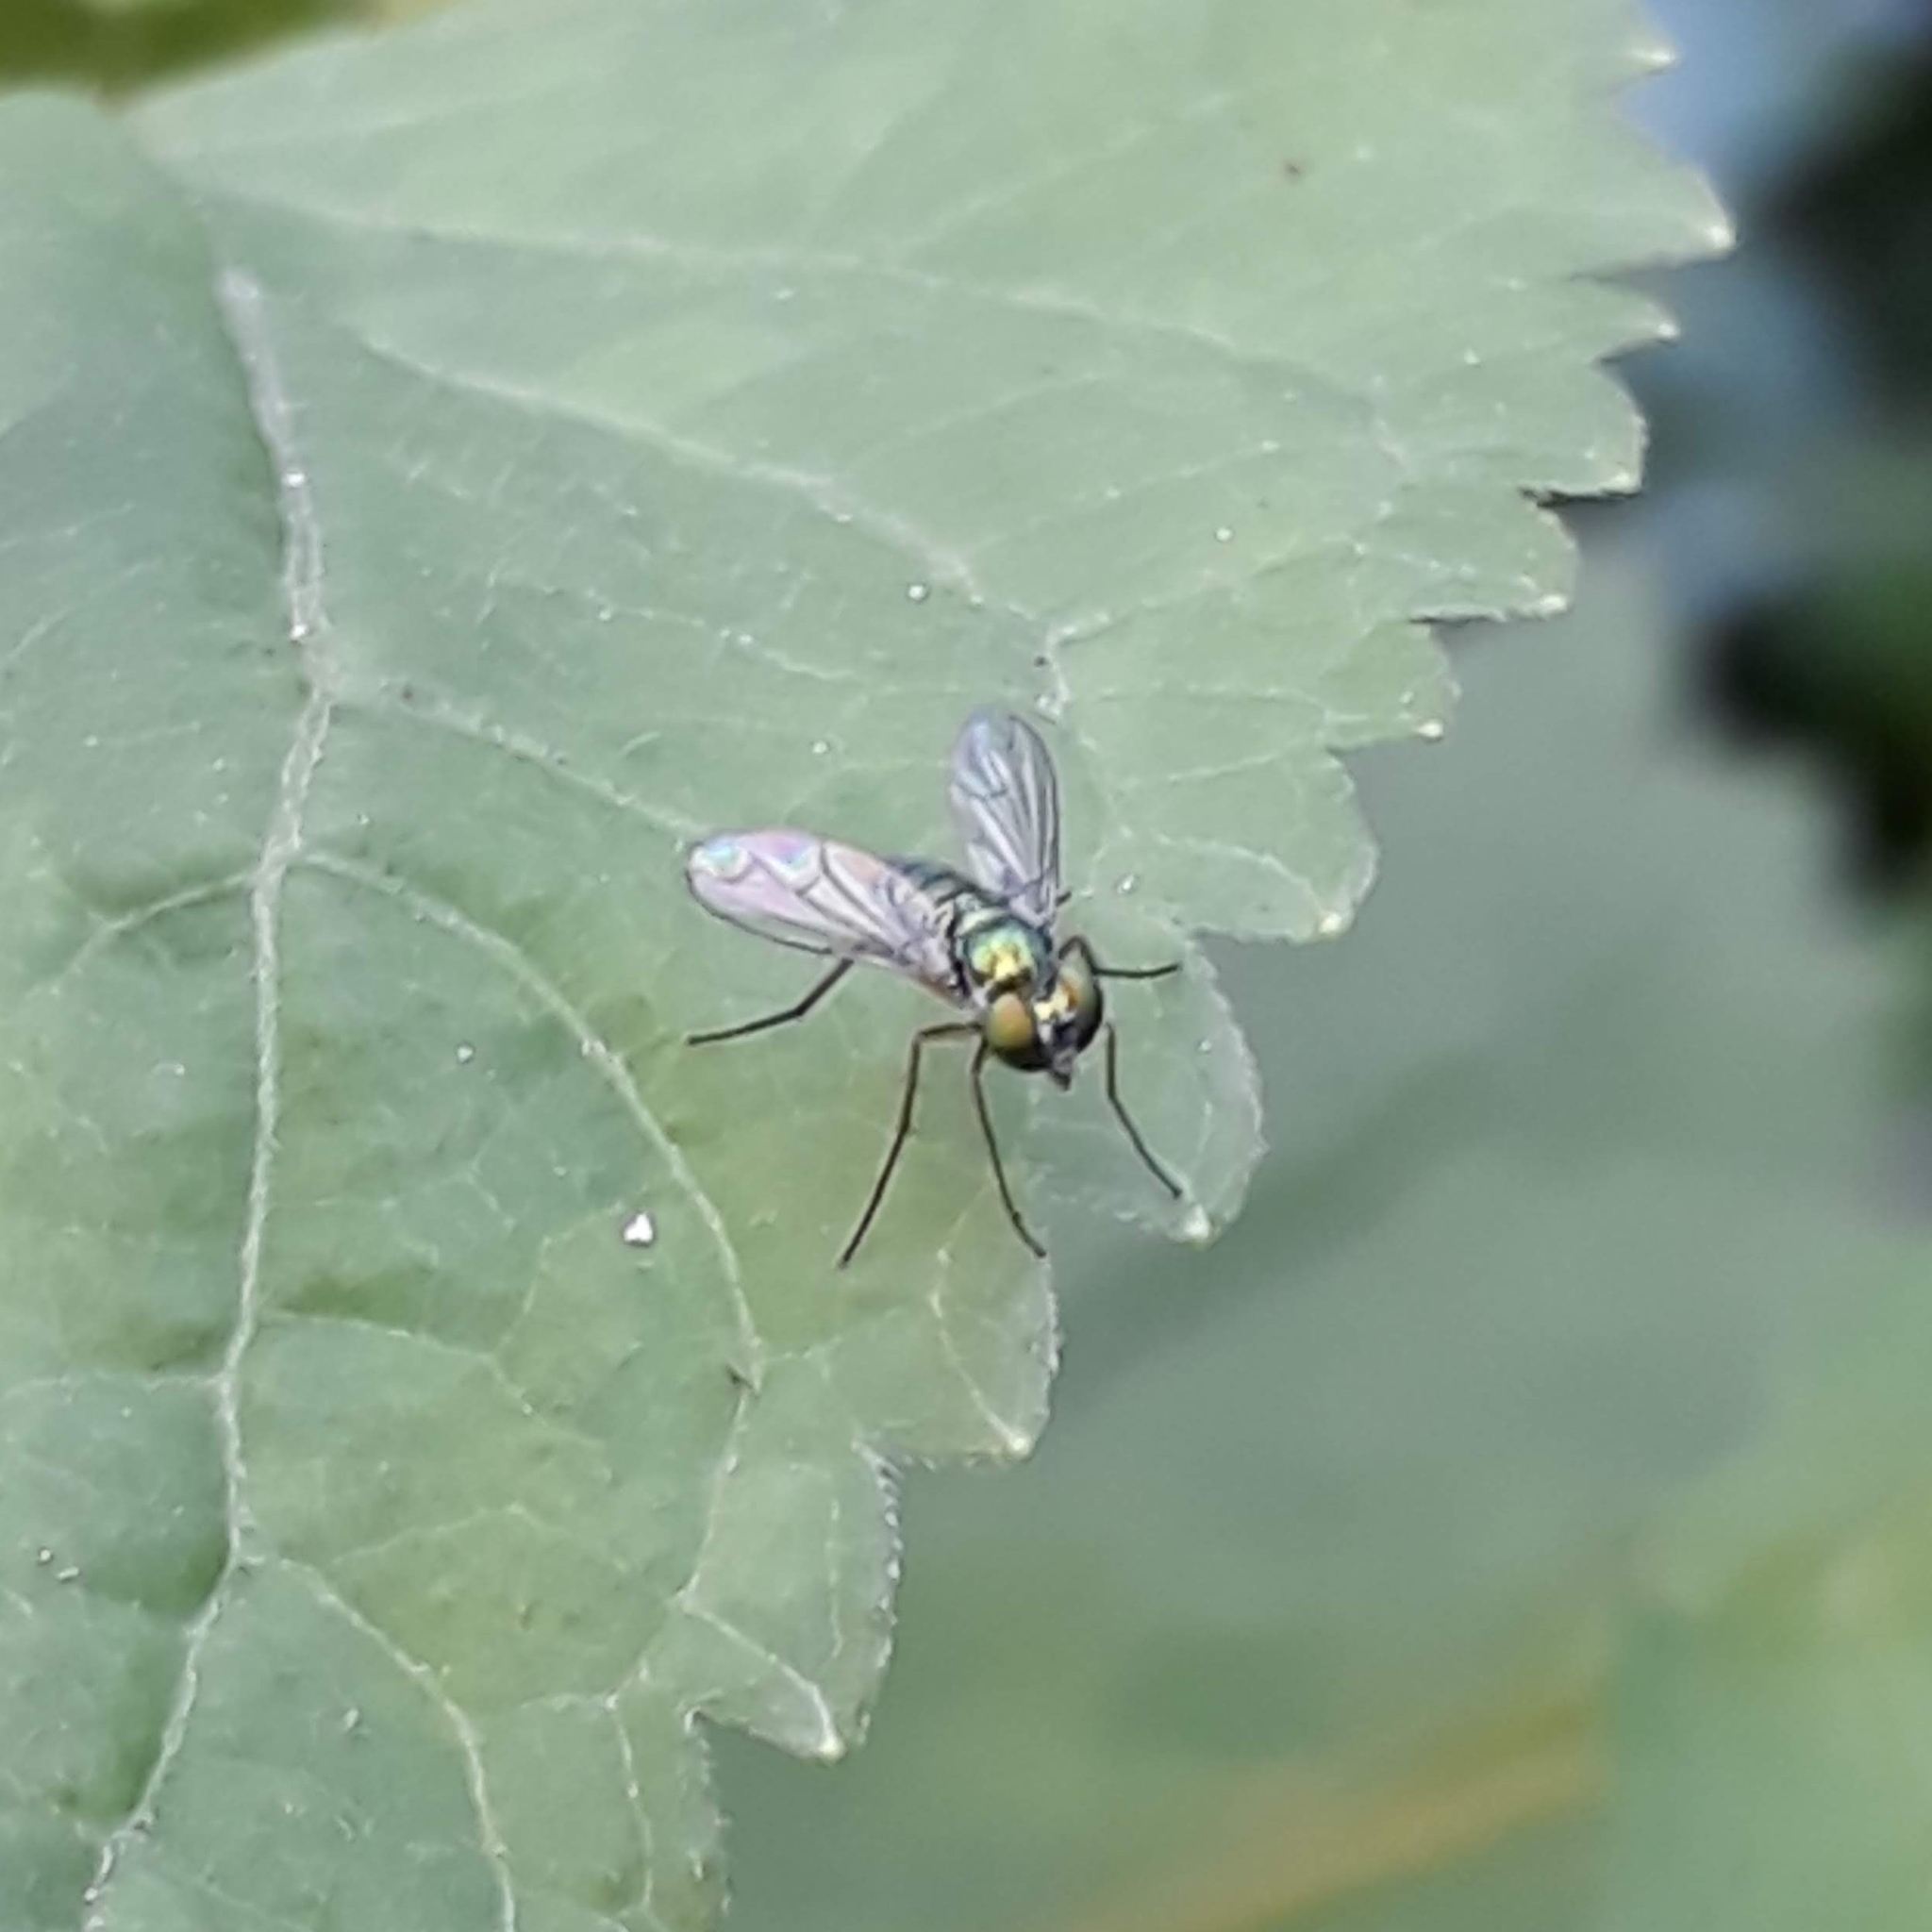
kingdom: Animalia
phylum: Arthropoda
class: Insecta
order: Diptera
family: Dolichopodidae
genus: Condylostylus
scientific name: Condylostylus
